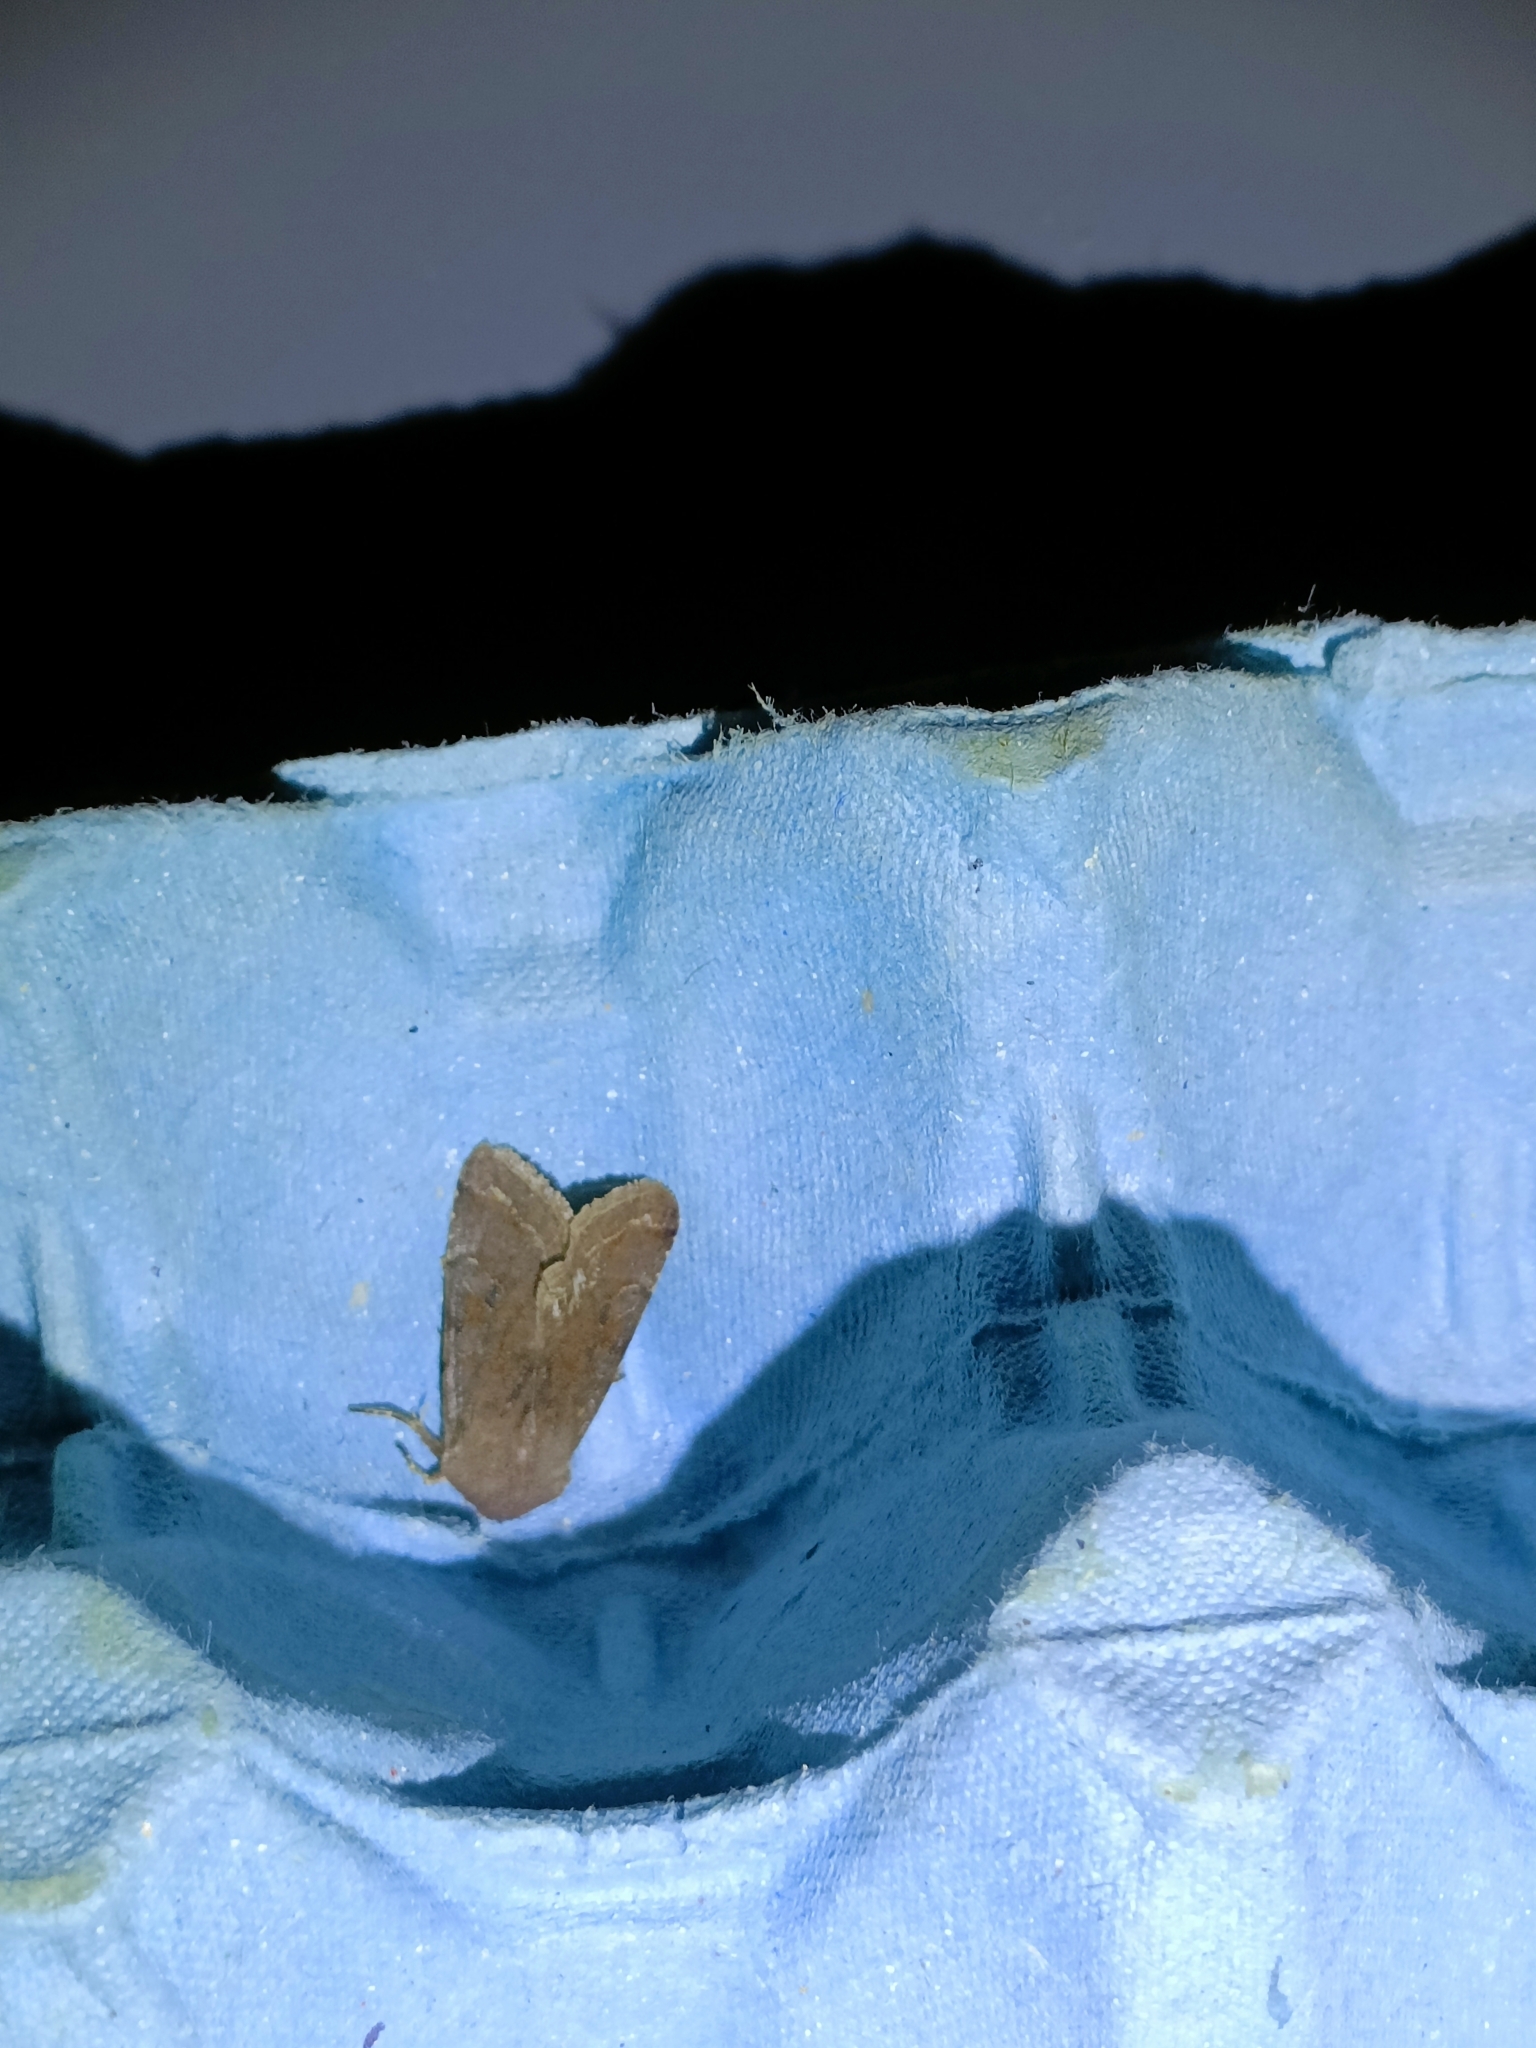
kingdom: Animalia
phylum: Arthropoda
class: Insecta
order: Lepidoptera
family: Noctuidae
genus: Orthosia
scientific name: Orthosia incerta
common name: Clouded drab
